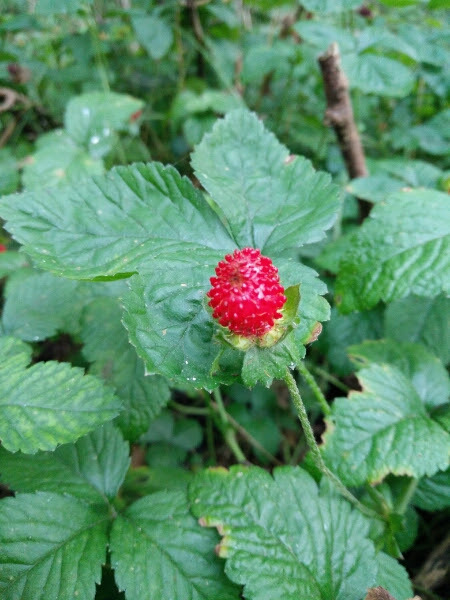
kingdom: Plantae
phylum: Tracheophyta
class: Magnoliopsida
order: Rosales
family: Rosaceae
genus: Potentilla
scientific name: Potentilla indica
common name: Yellow-flowered strawberry
